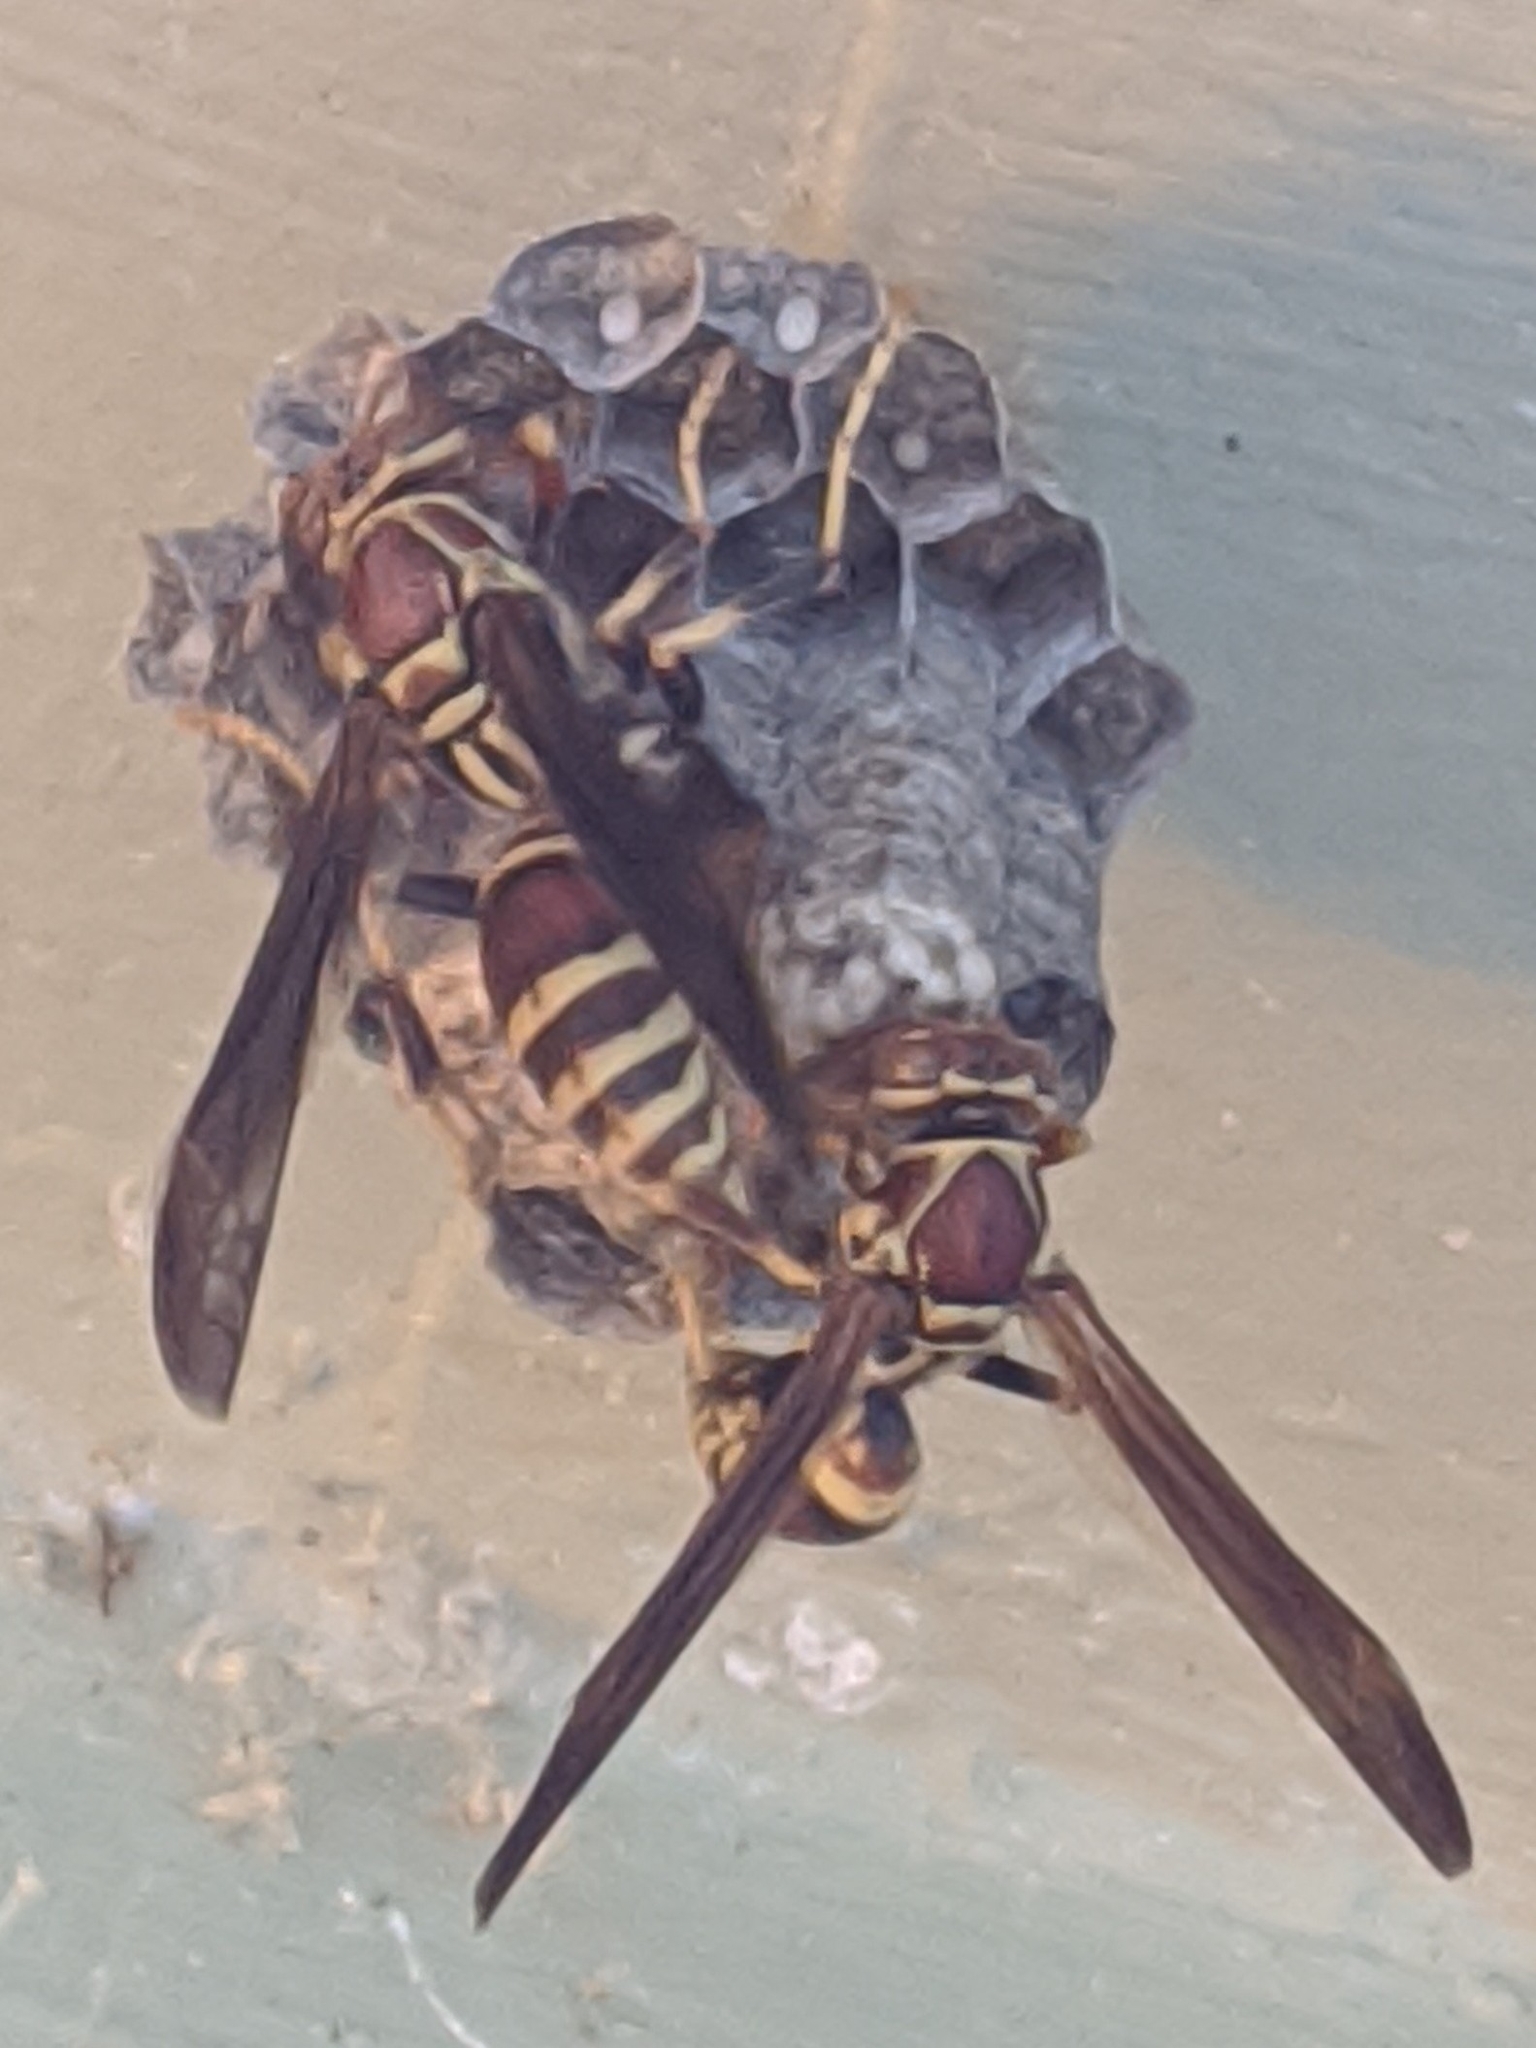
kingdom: Animalia
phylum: Arthropoda
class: Insecta
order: Hymenoptera
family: Eumenidae
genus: Polistes
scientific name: Polistes exclamans
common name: Paper wasp
